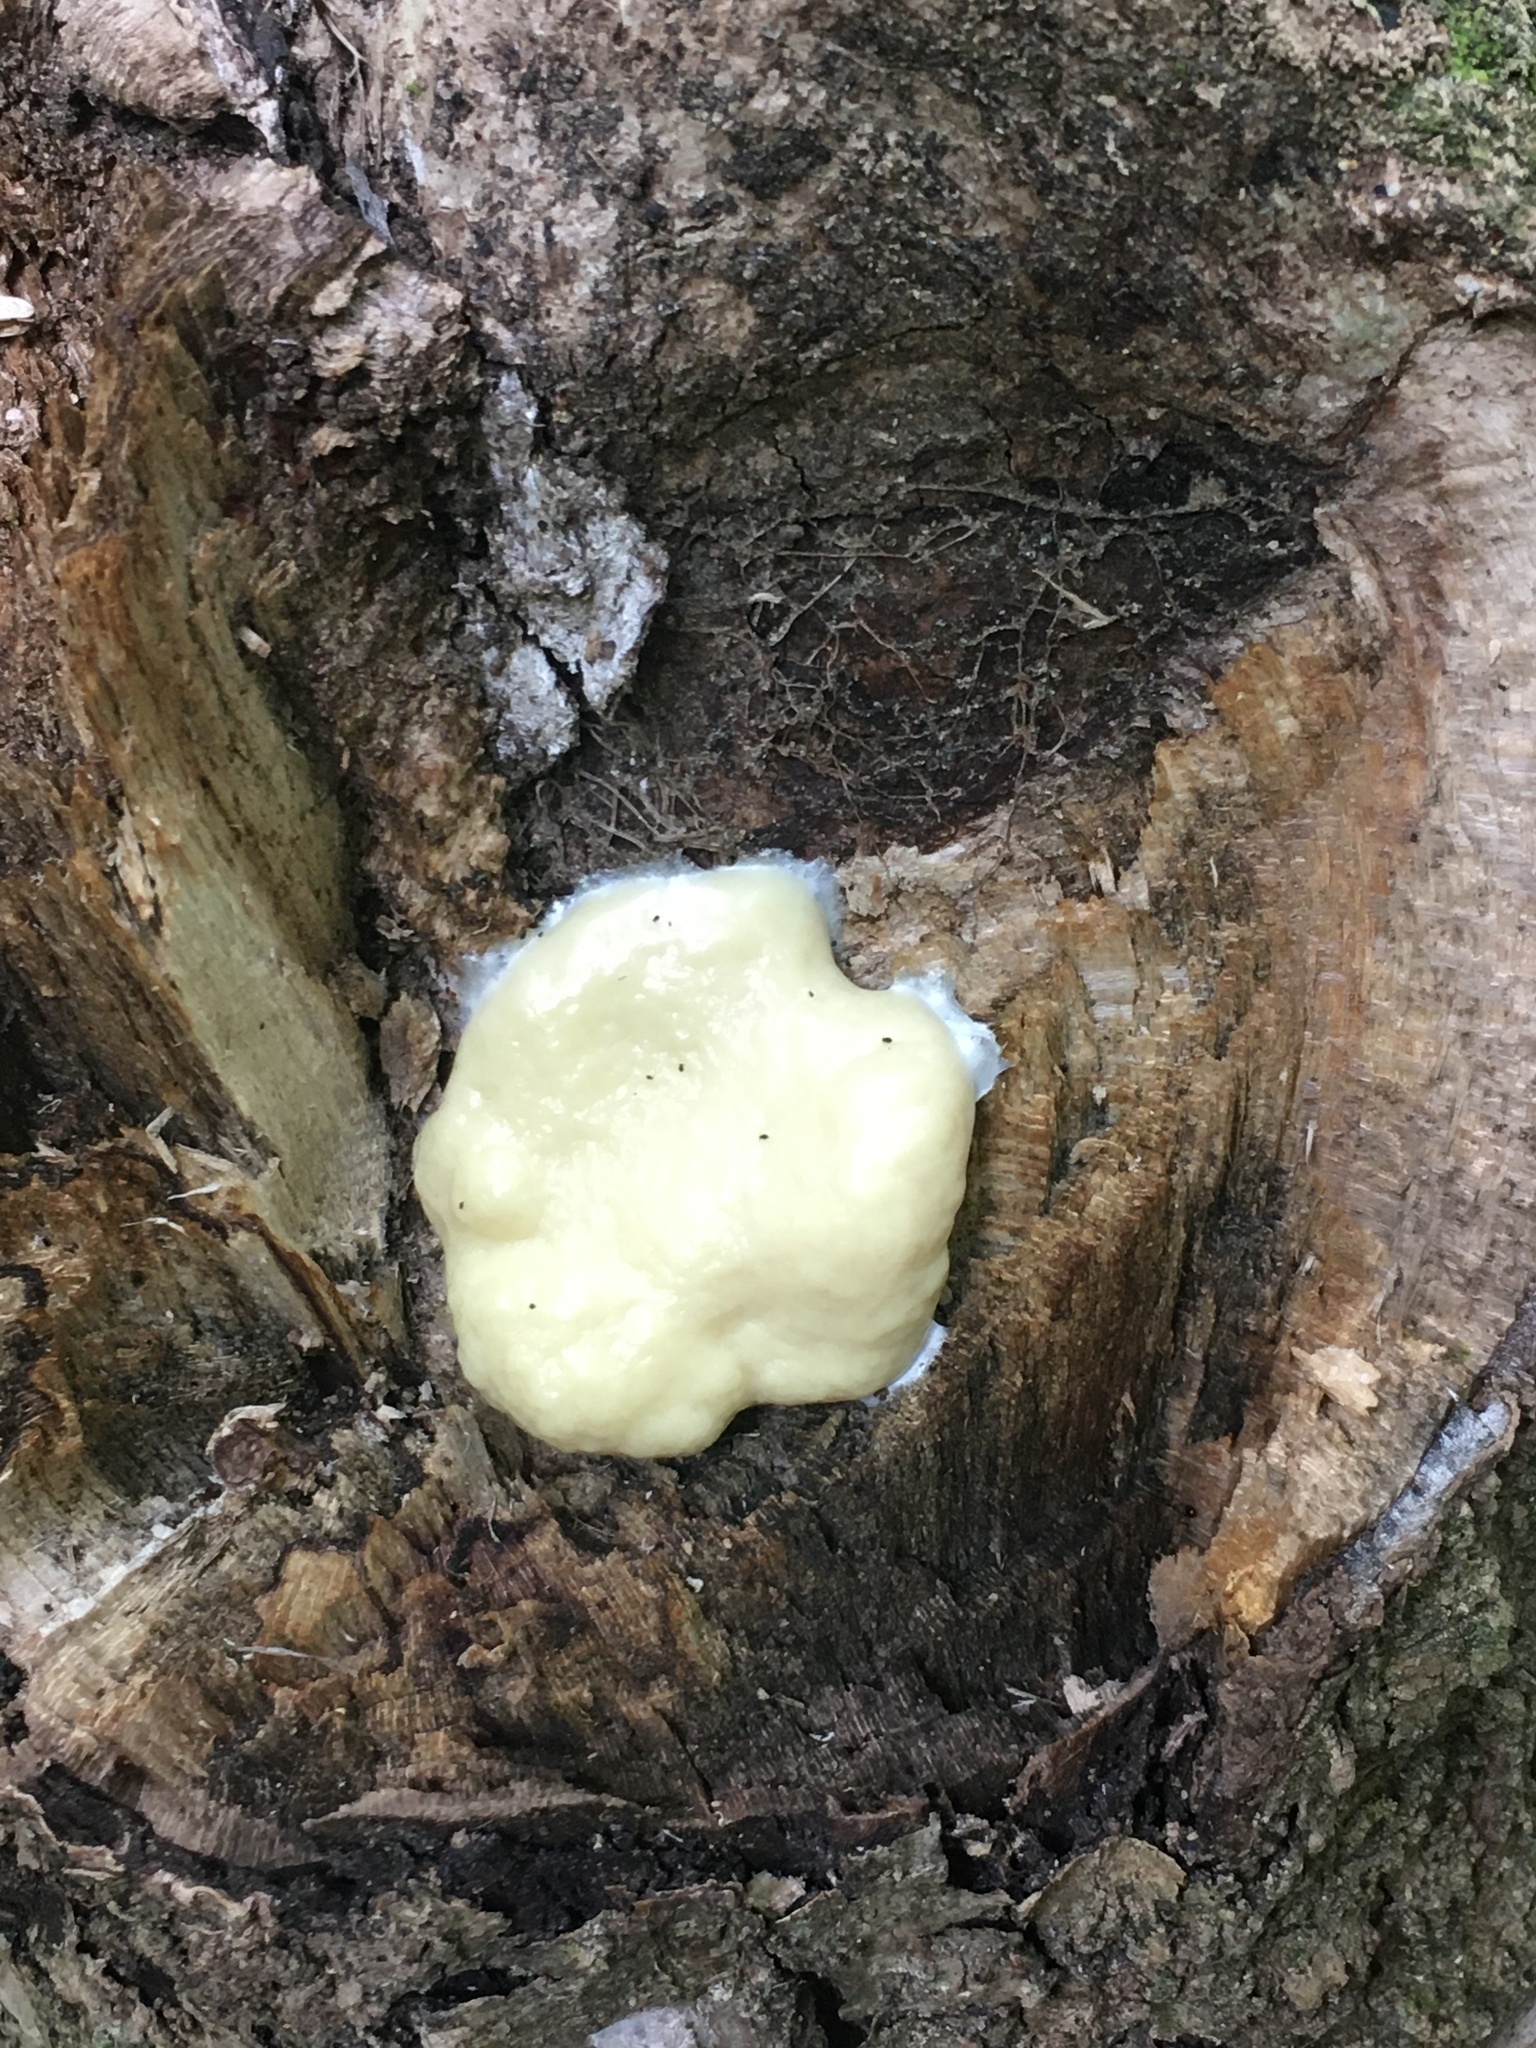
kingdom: Protozoa
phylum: Mycetozoa
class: Myxomycetes
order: Cribrariales
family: Tubiferaceae
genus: Reticularia
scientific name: Reticularia lycoperdon
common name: False puffball
